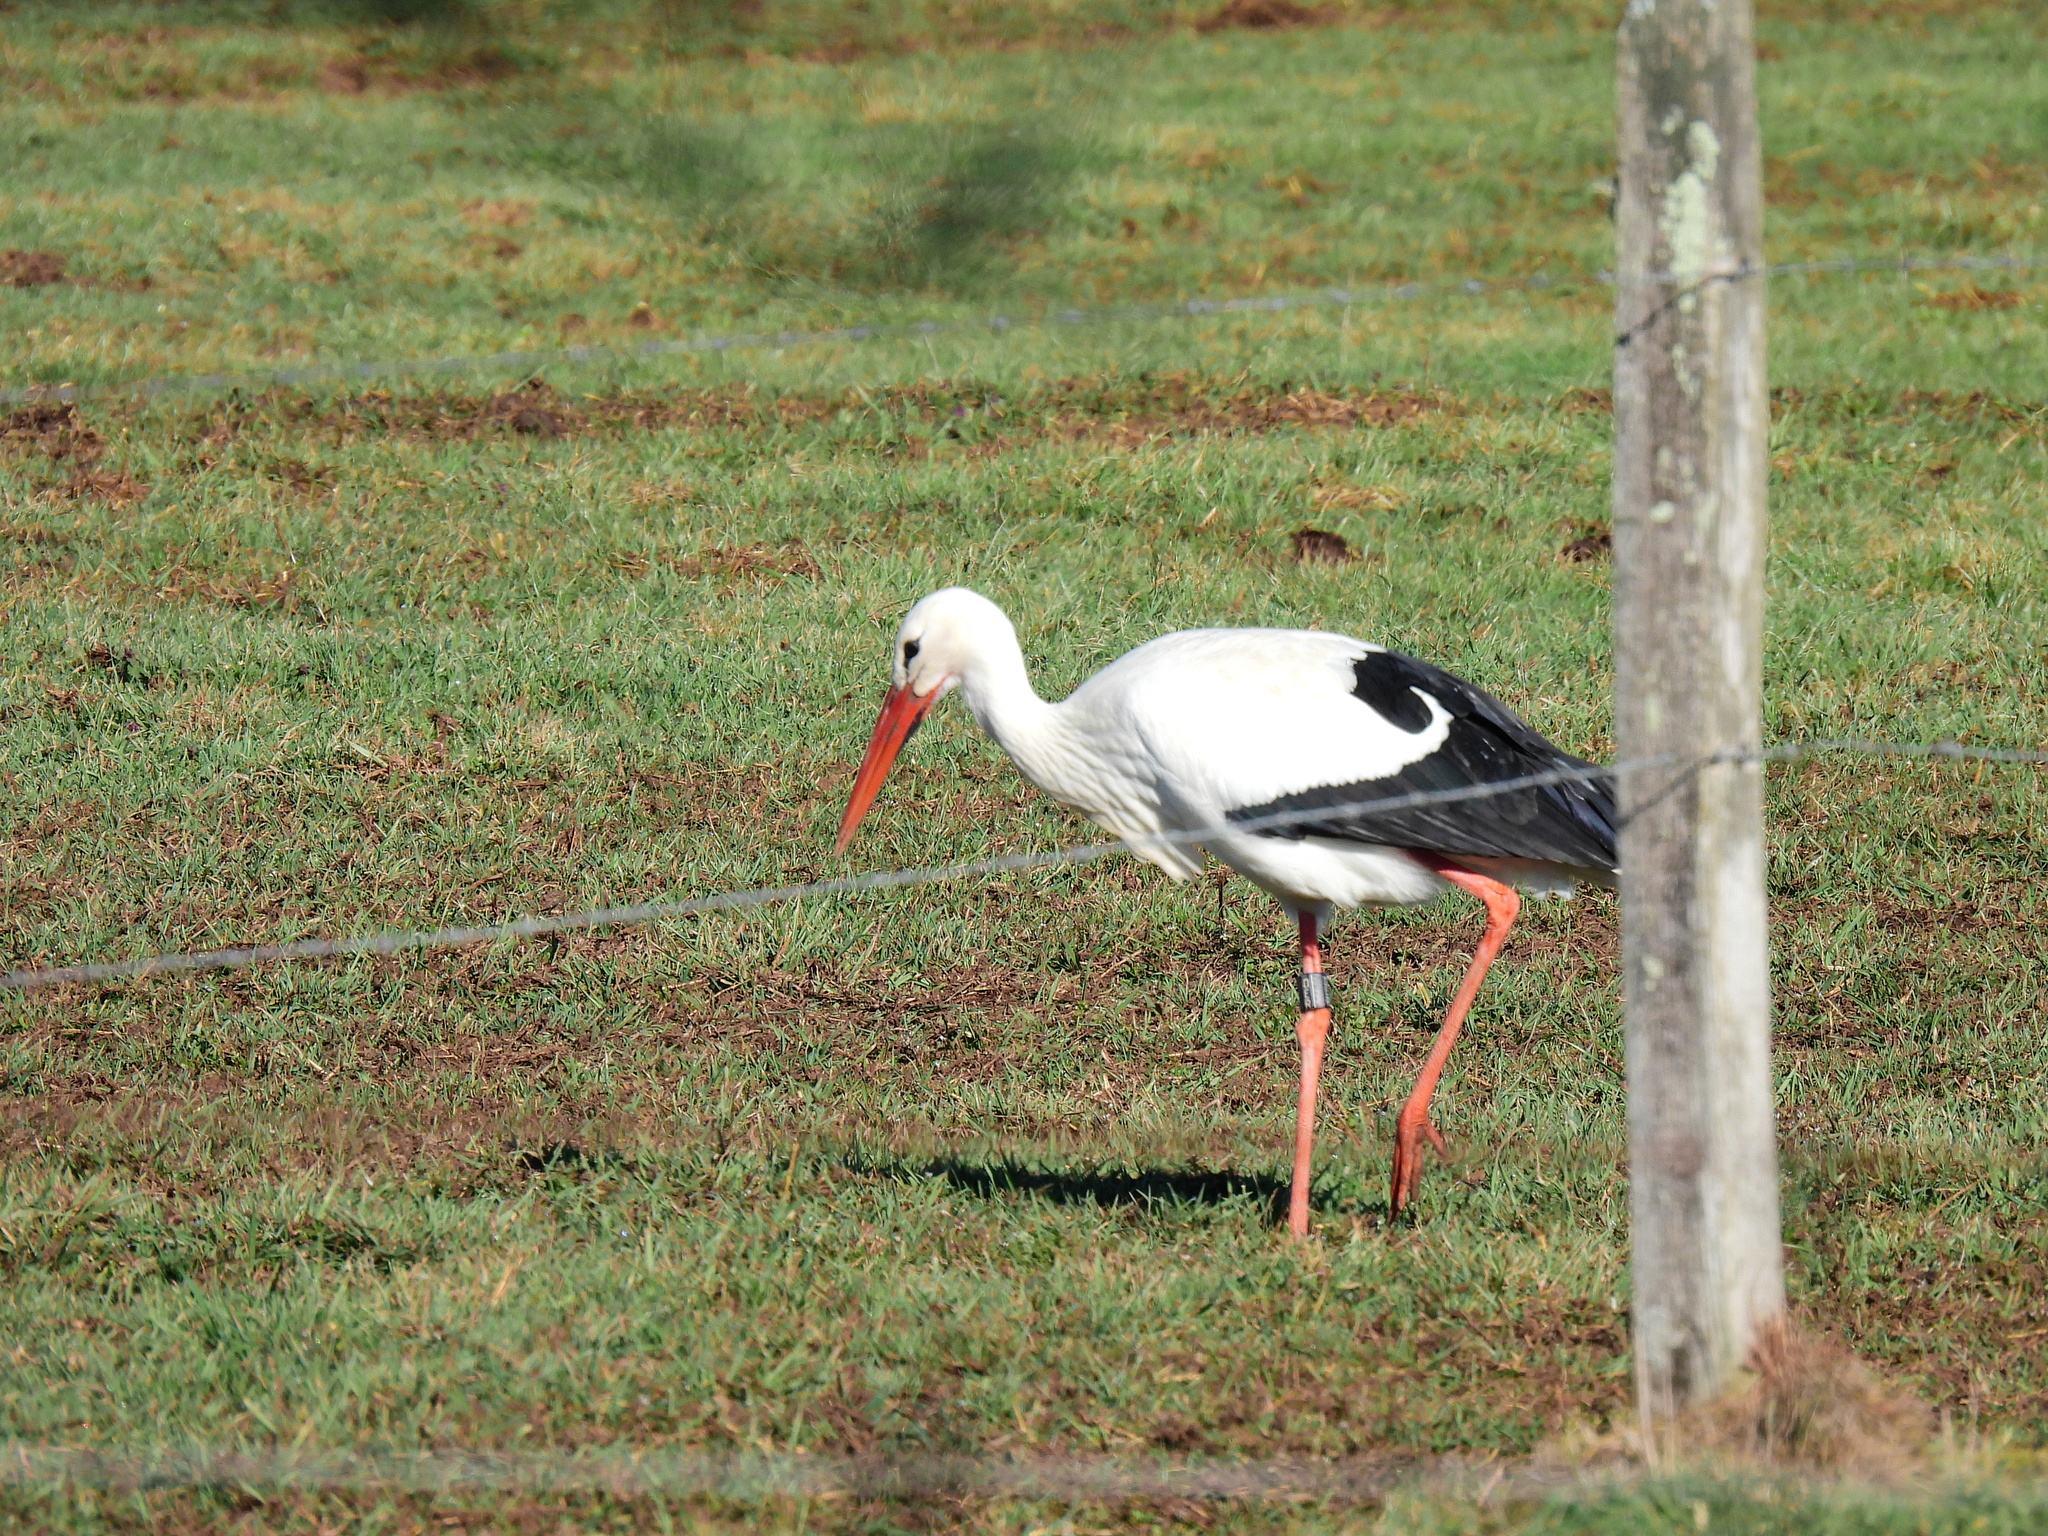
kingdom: Animalia
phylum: Chordata
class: Aves
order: Ciconiiformes
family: Ciconiidae
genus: Ciconia
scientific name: Ciconia ciconia
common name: White stork
